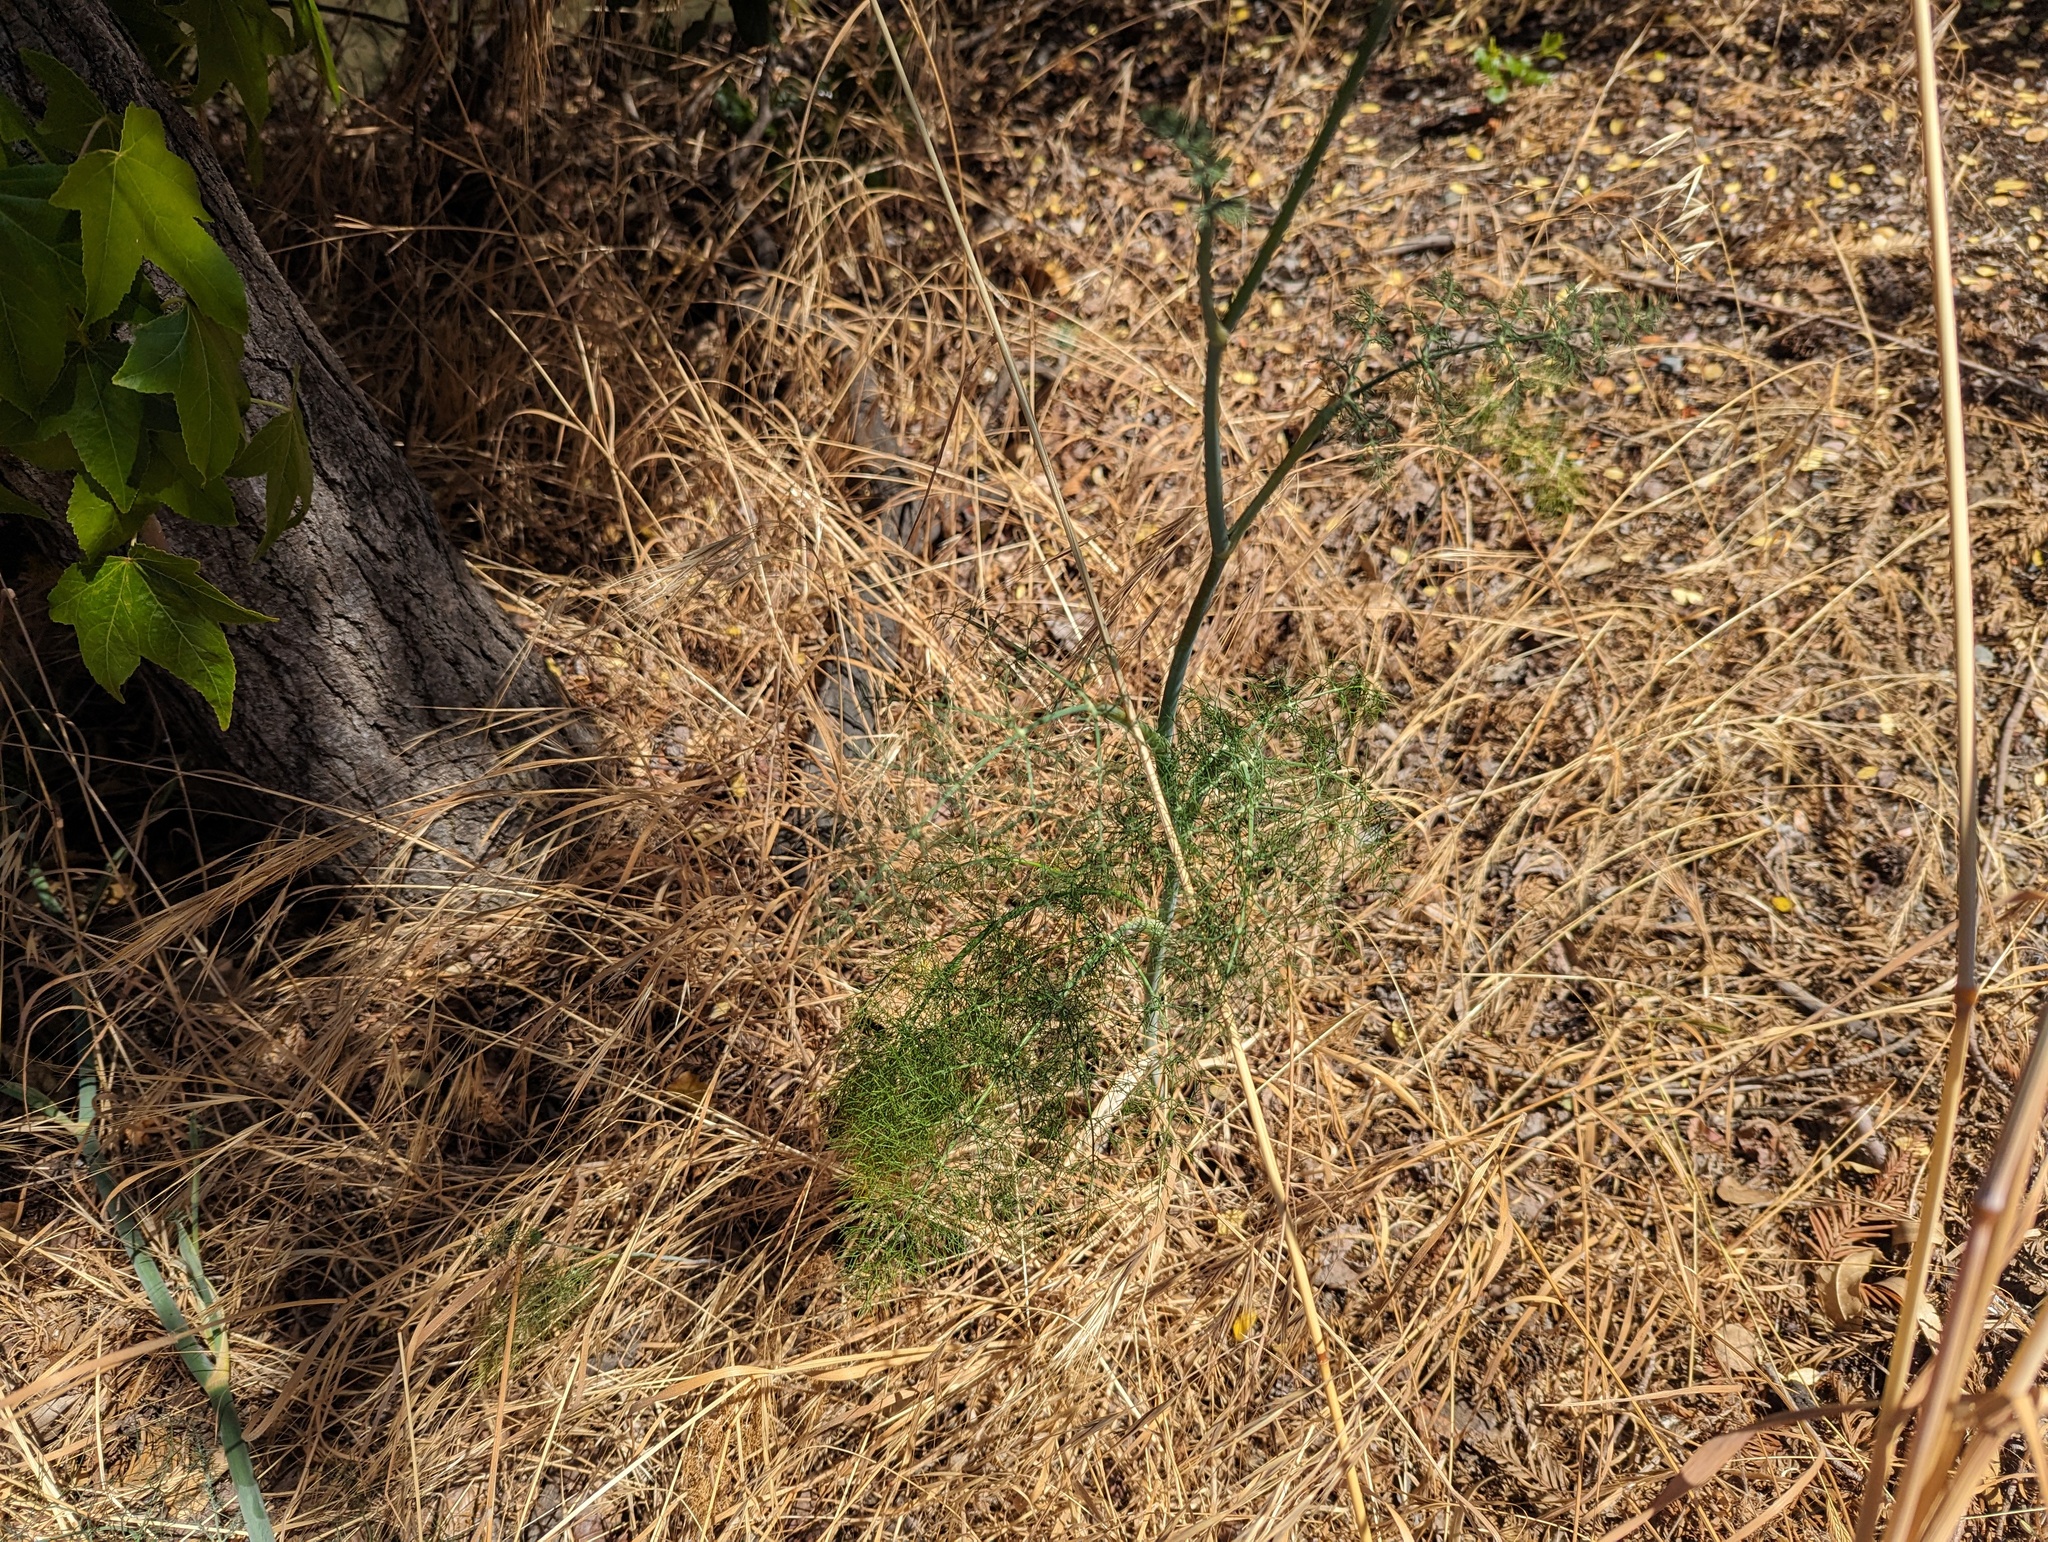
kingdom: Plantae
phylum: Tracheophyta
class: Magnoliopsida
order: Apiales
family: Apiaceae
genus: Foeniculum
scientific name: Foeniculum vulgare
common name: Fennel
